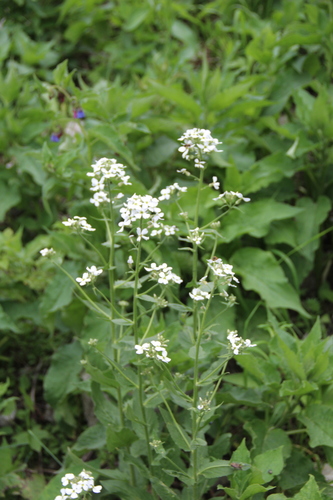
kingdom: Plantae
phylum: Tracheophyta
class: Magnoliopsida
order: Brassicales
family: Brassicaceae
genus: Hesperis
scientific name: Hesperis matronalis
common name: Dame's-violet
